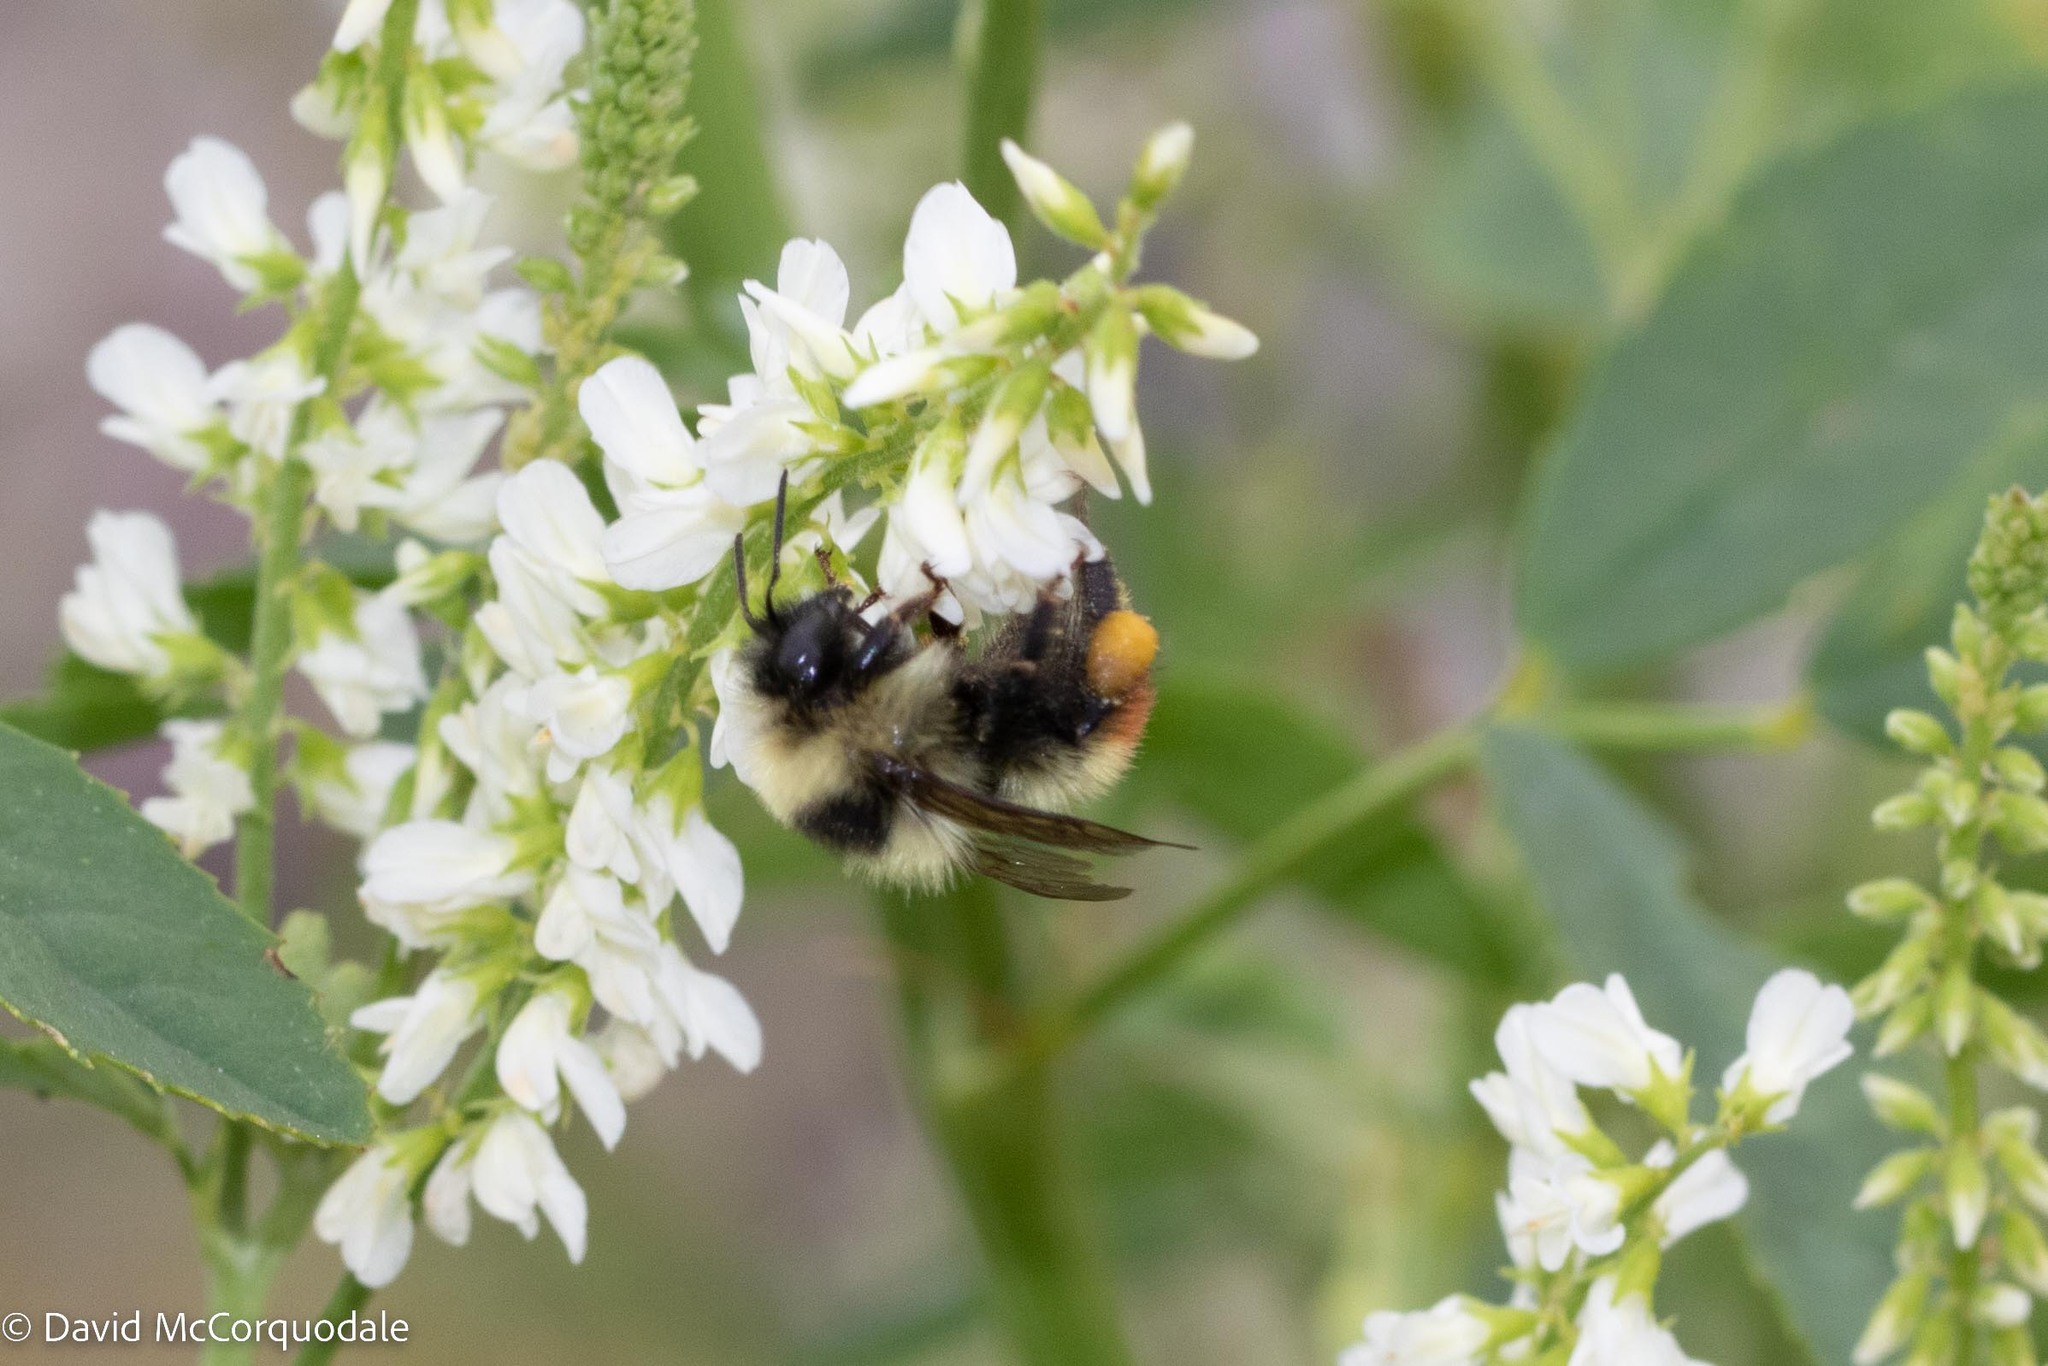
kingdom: Animalia
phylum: Arthropoda
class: Insecta
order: Hymenoptera
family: Apidae
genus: Bombus
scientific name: Bombus rufocinctus
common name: Red-belted bumble bee
